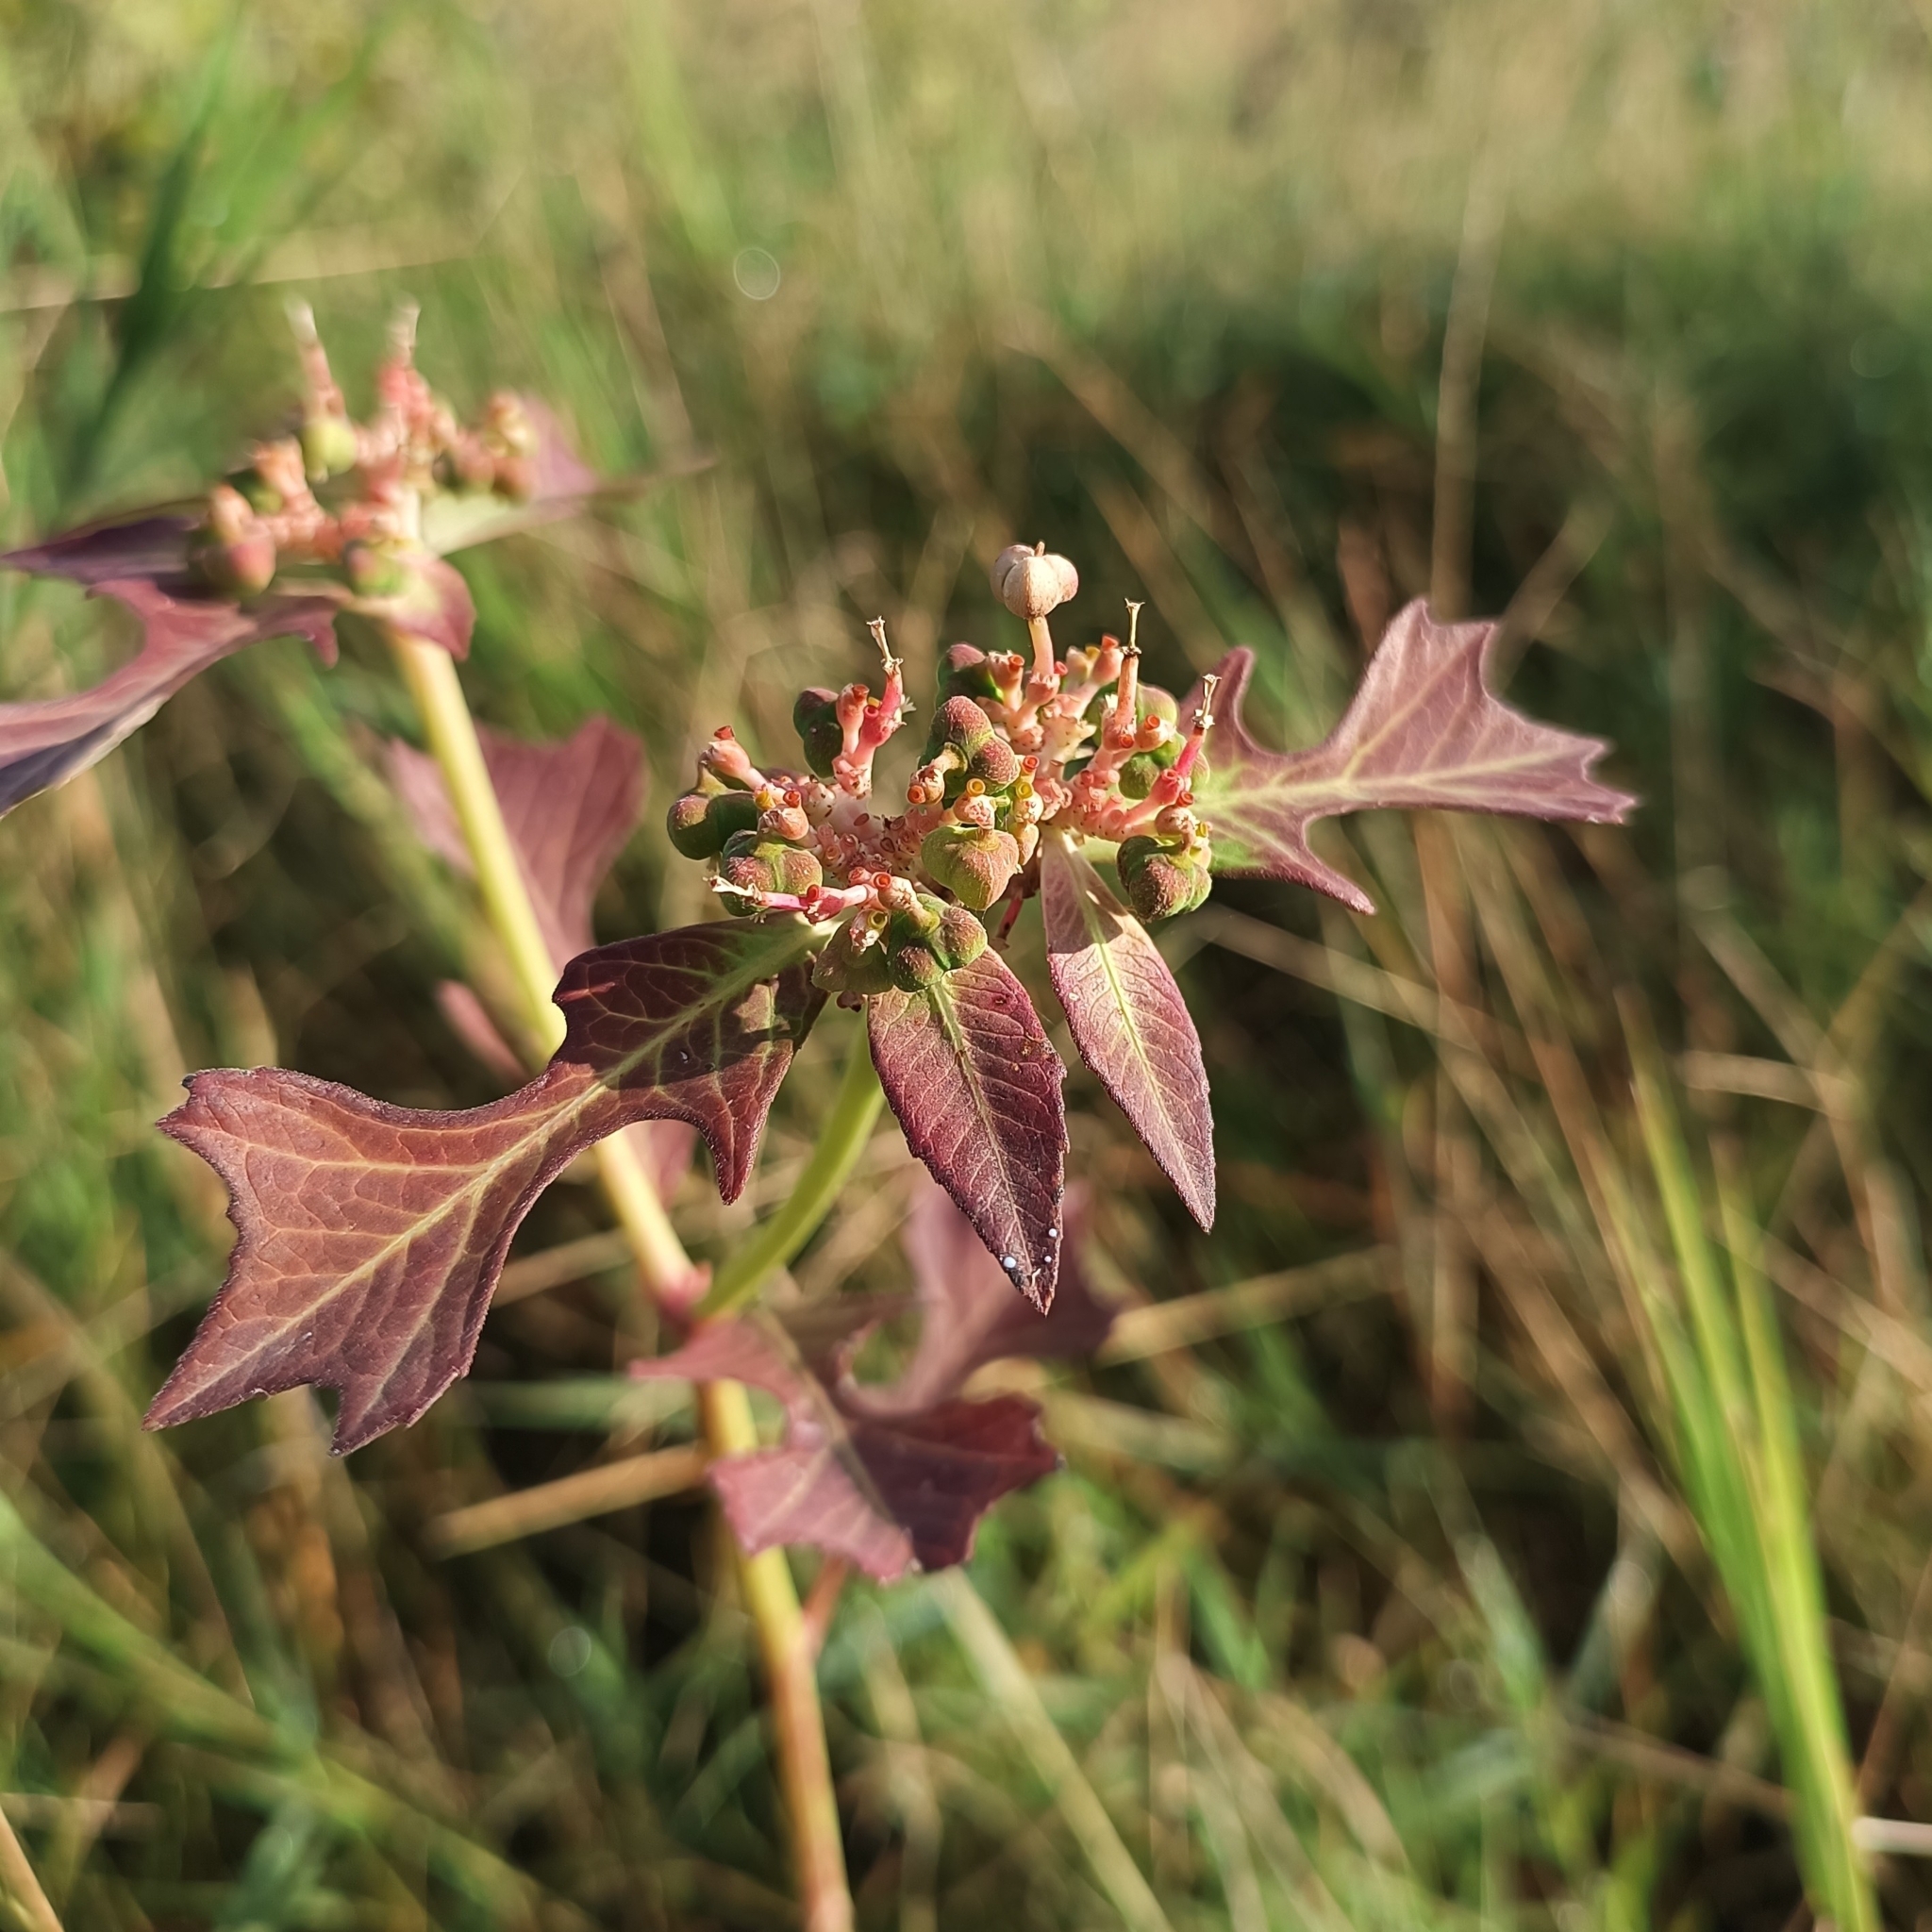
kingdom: Plantae
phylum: Tracheophyta
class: Magnoliopsida
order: Malpighiales
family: Euphorbiaceae
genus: Euphorbia
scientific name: Euphorbia heterophylla
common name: Mexican fireplant
